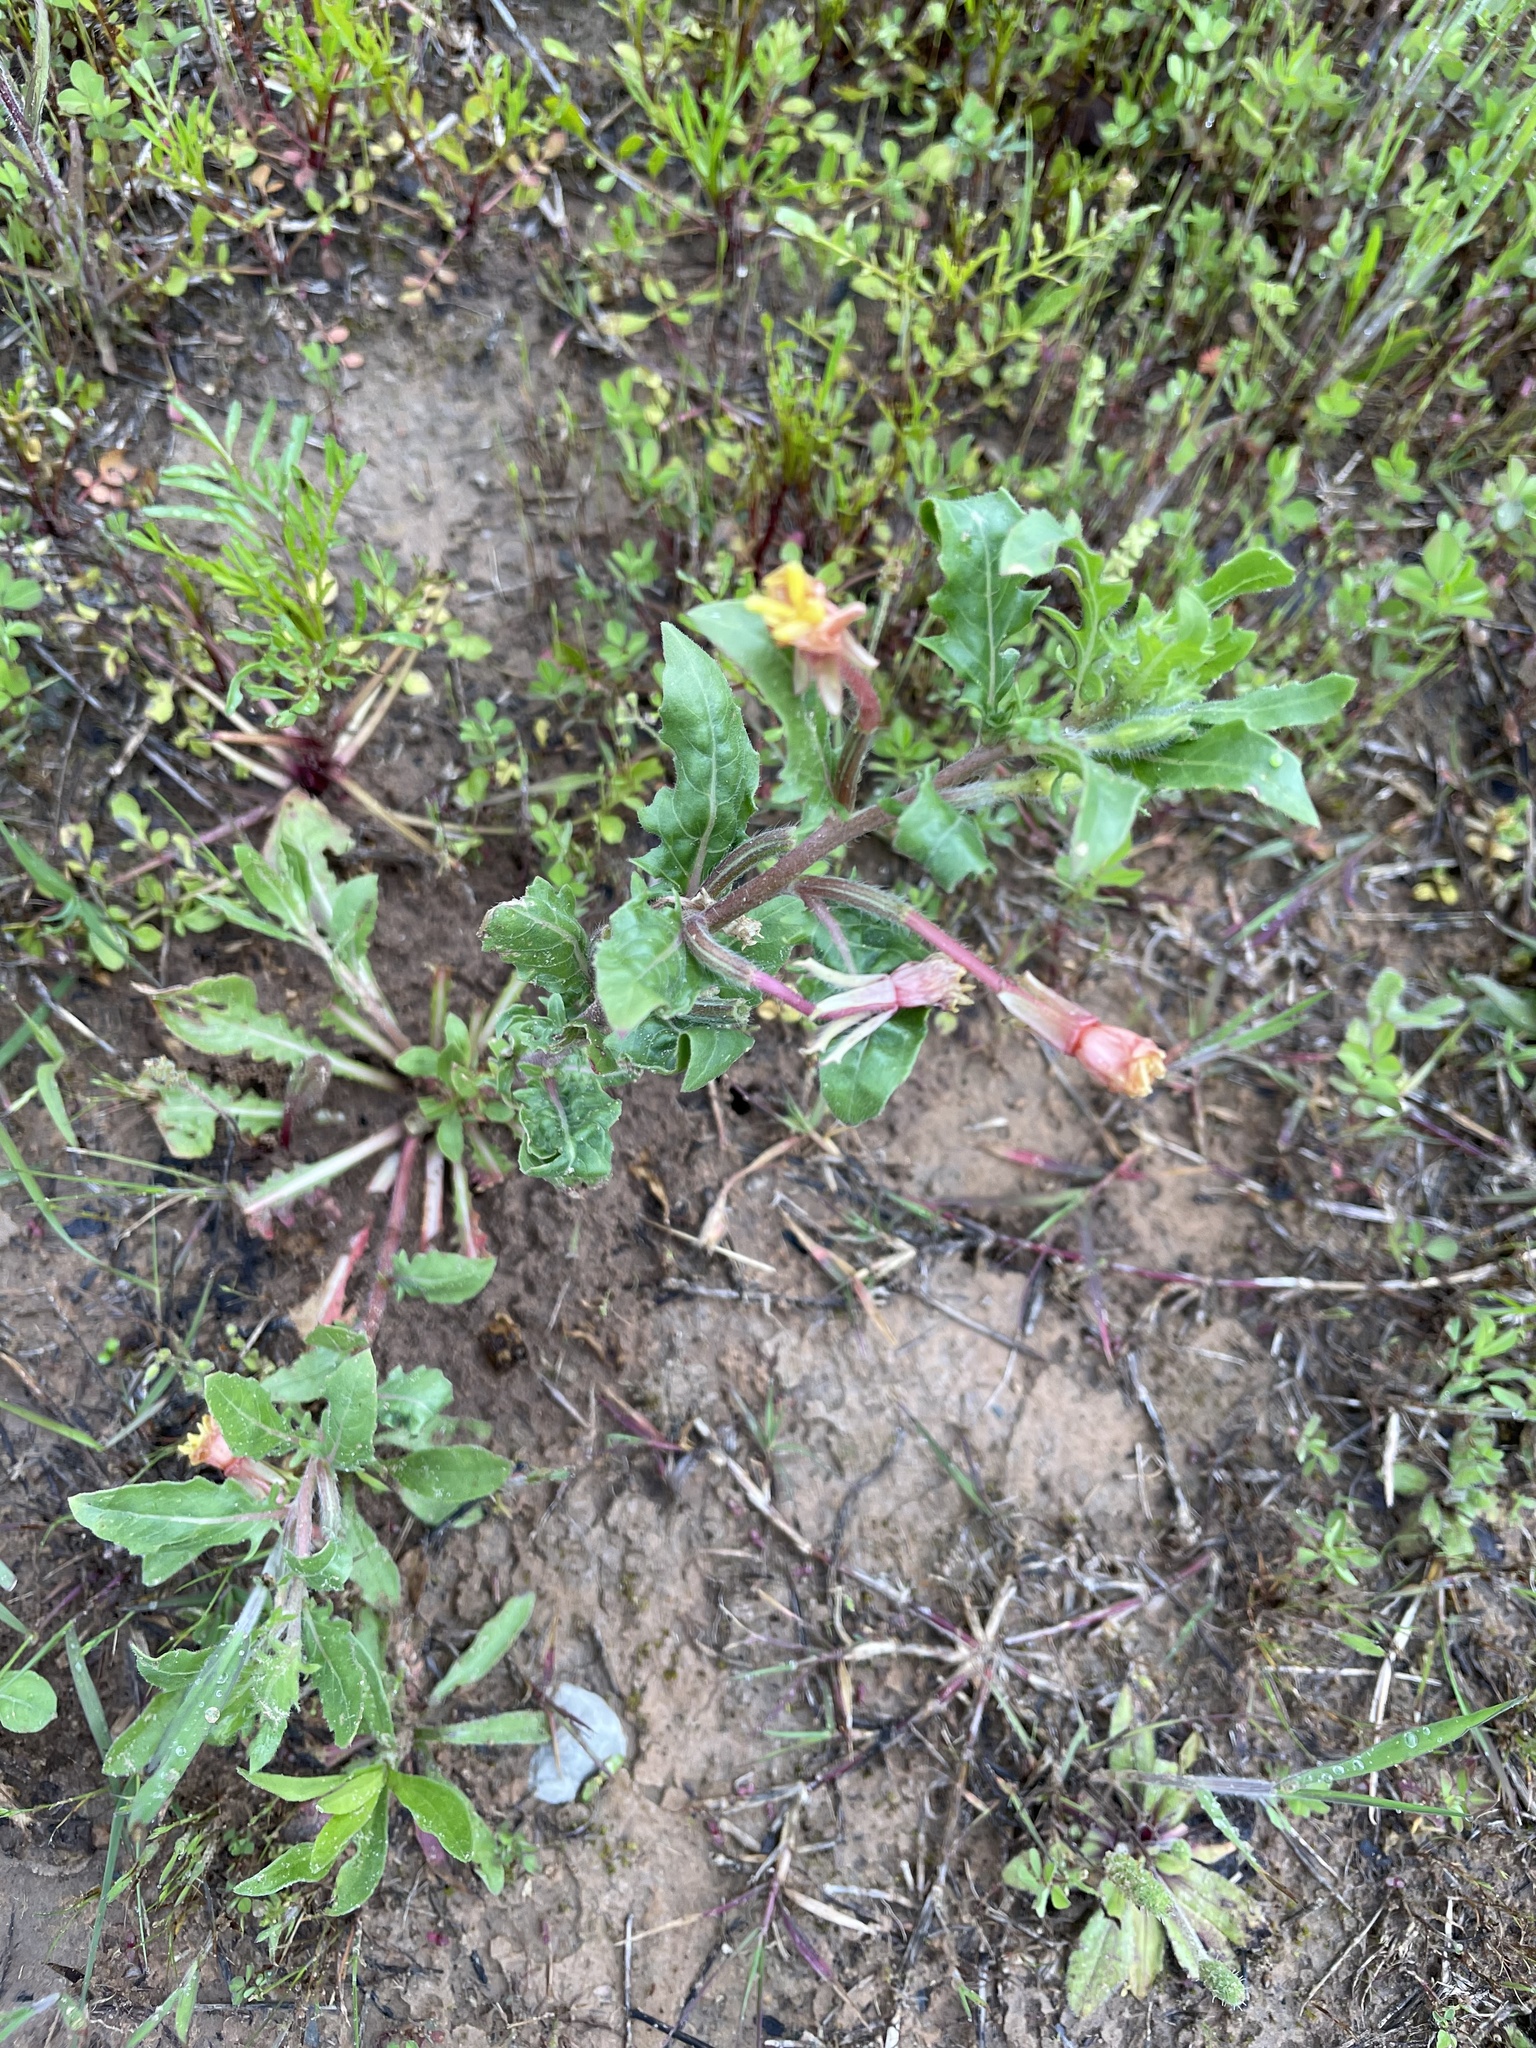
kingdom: Plantae
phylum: Tracheophyta
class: Magnoliopsida
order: Myrtales
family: Onagraceae
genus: Oenothera
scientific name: Oenothera laciniata
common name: Cut-leaved evening-primrose
